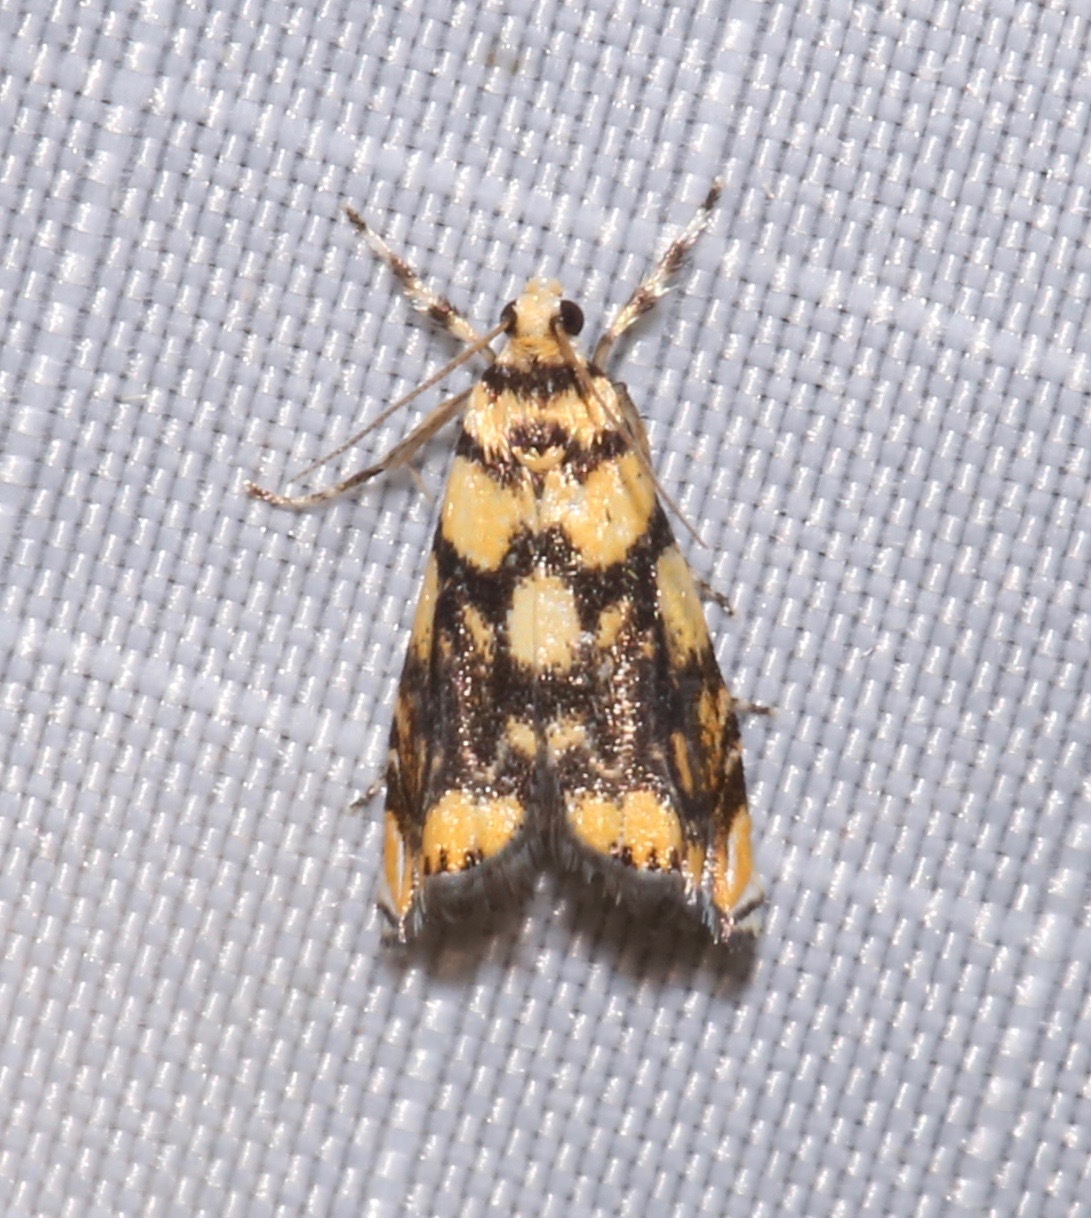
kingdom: Animalia
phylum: Arthropoda
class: Insecta
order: Lepidoptera
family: Crambidae
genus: Diptychophora
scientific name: Diptychophora harlequinalis
